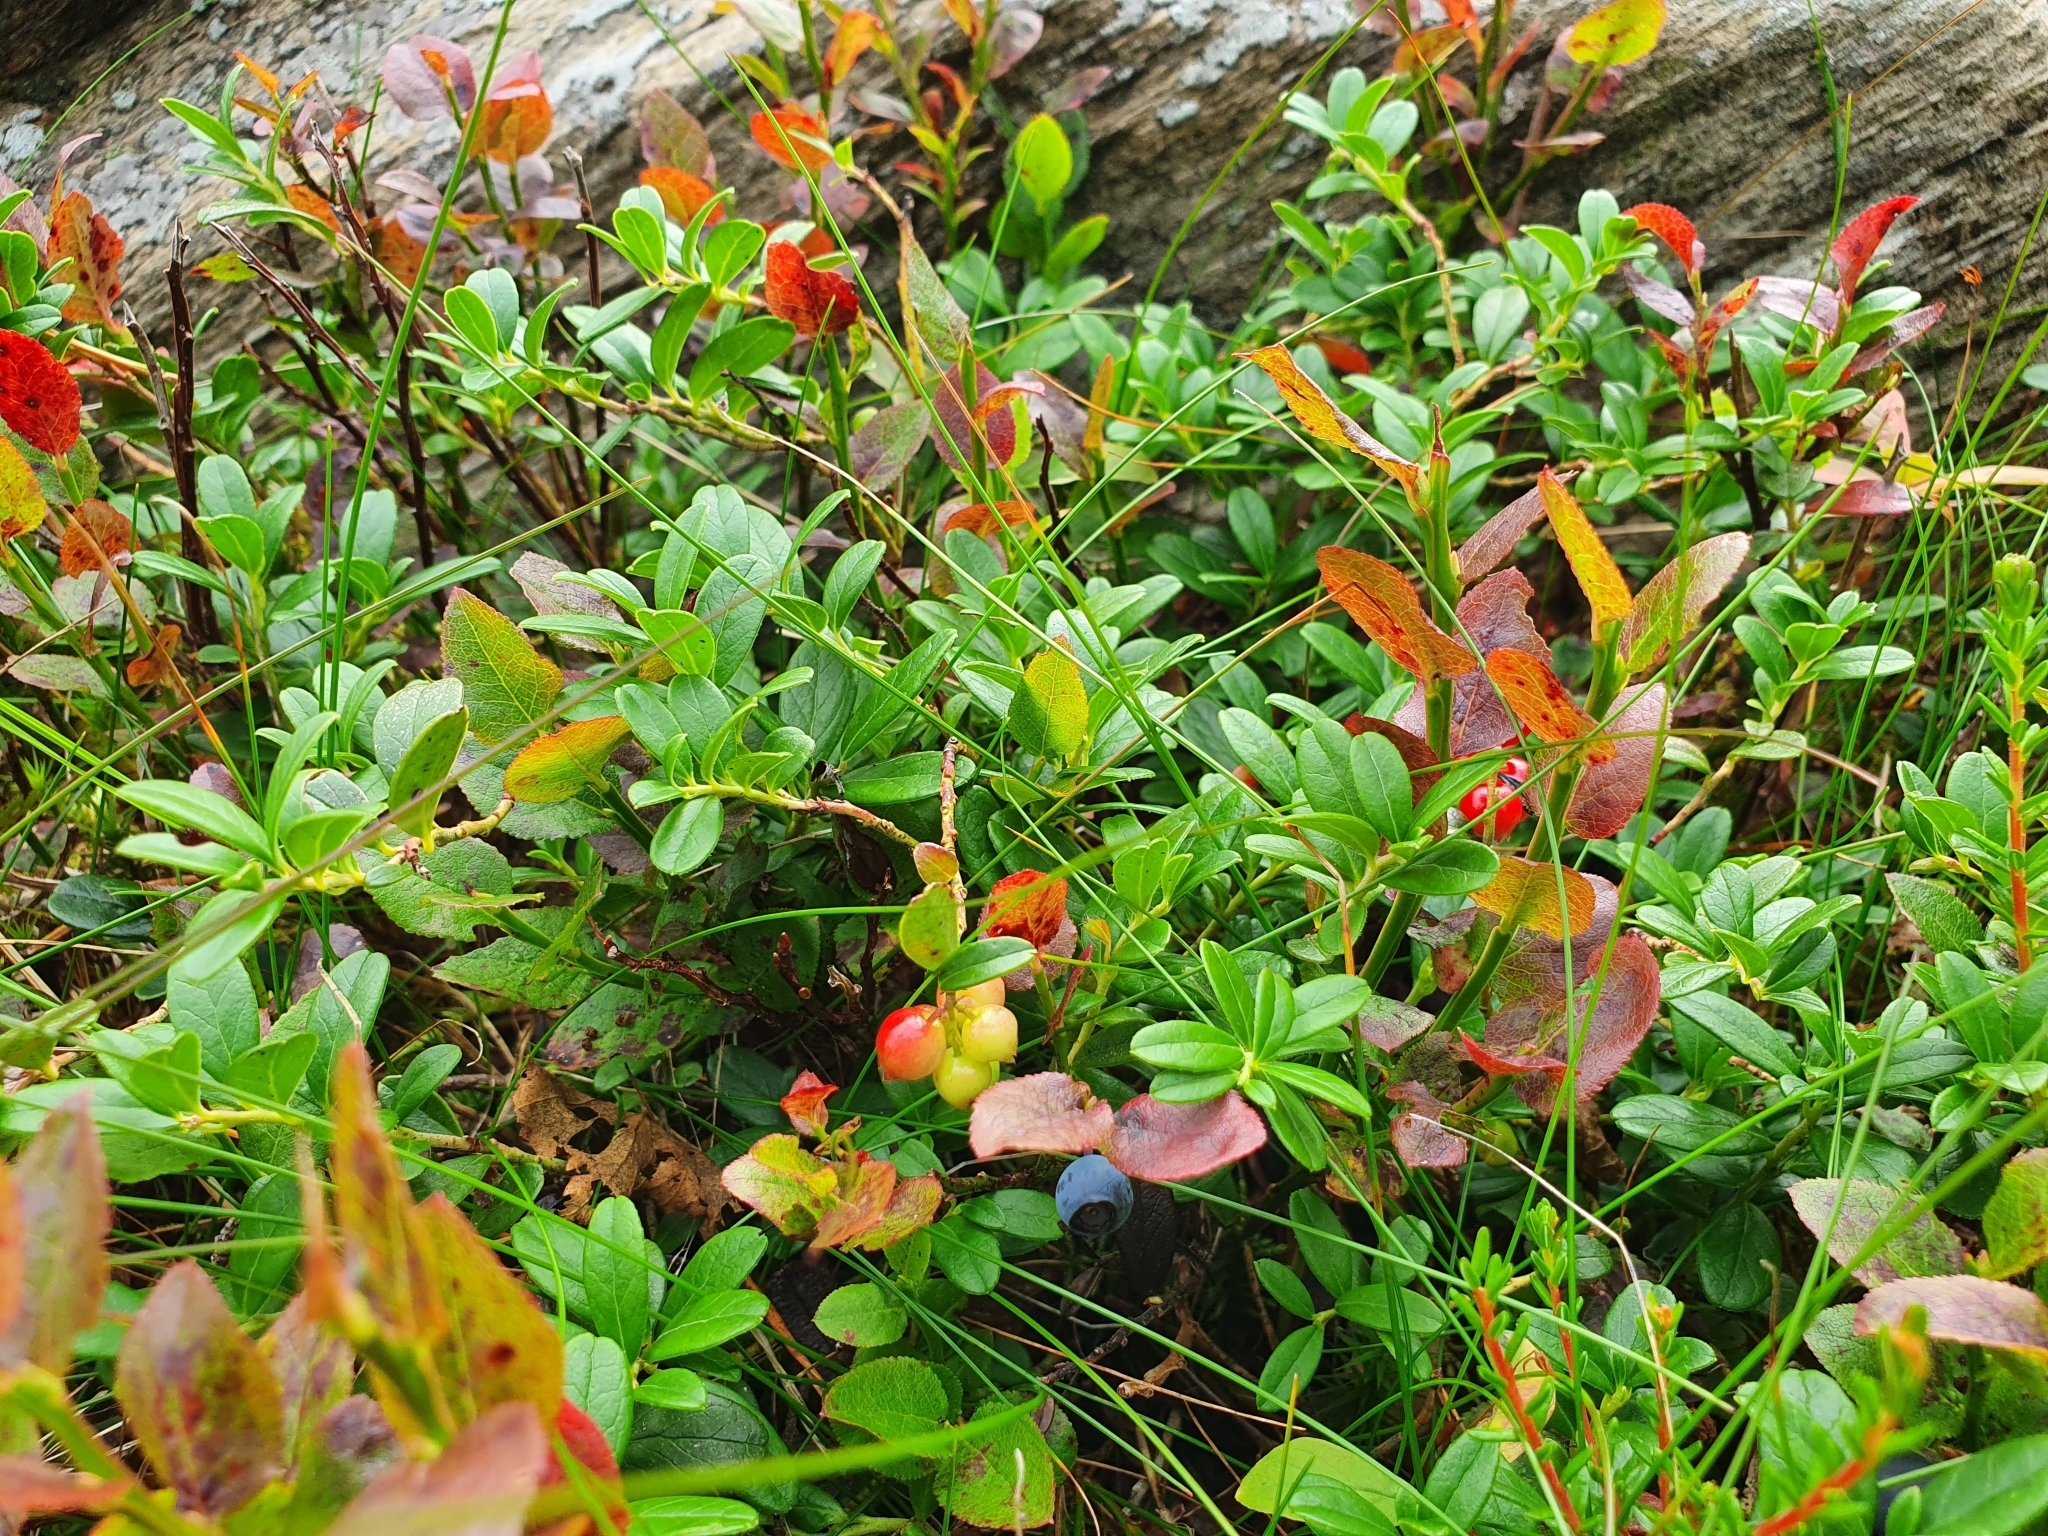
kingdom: Plantae
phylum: Tracheophyta
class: Magnoliopsida
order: Ericales
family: Ericaceae
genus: Vaccinium
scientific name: Vaccinium vitis-idaea
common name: Cowberry
